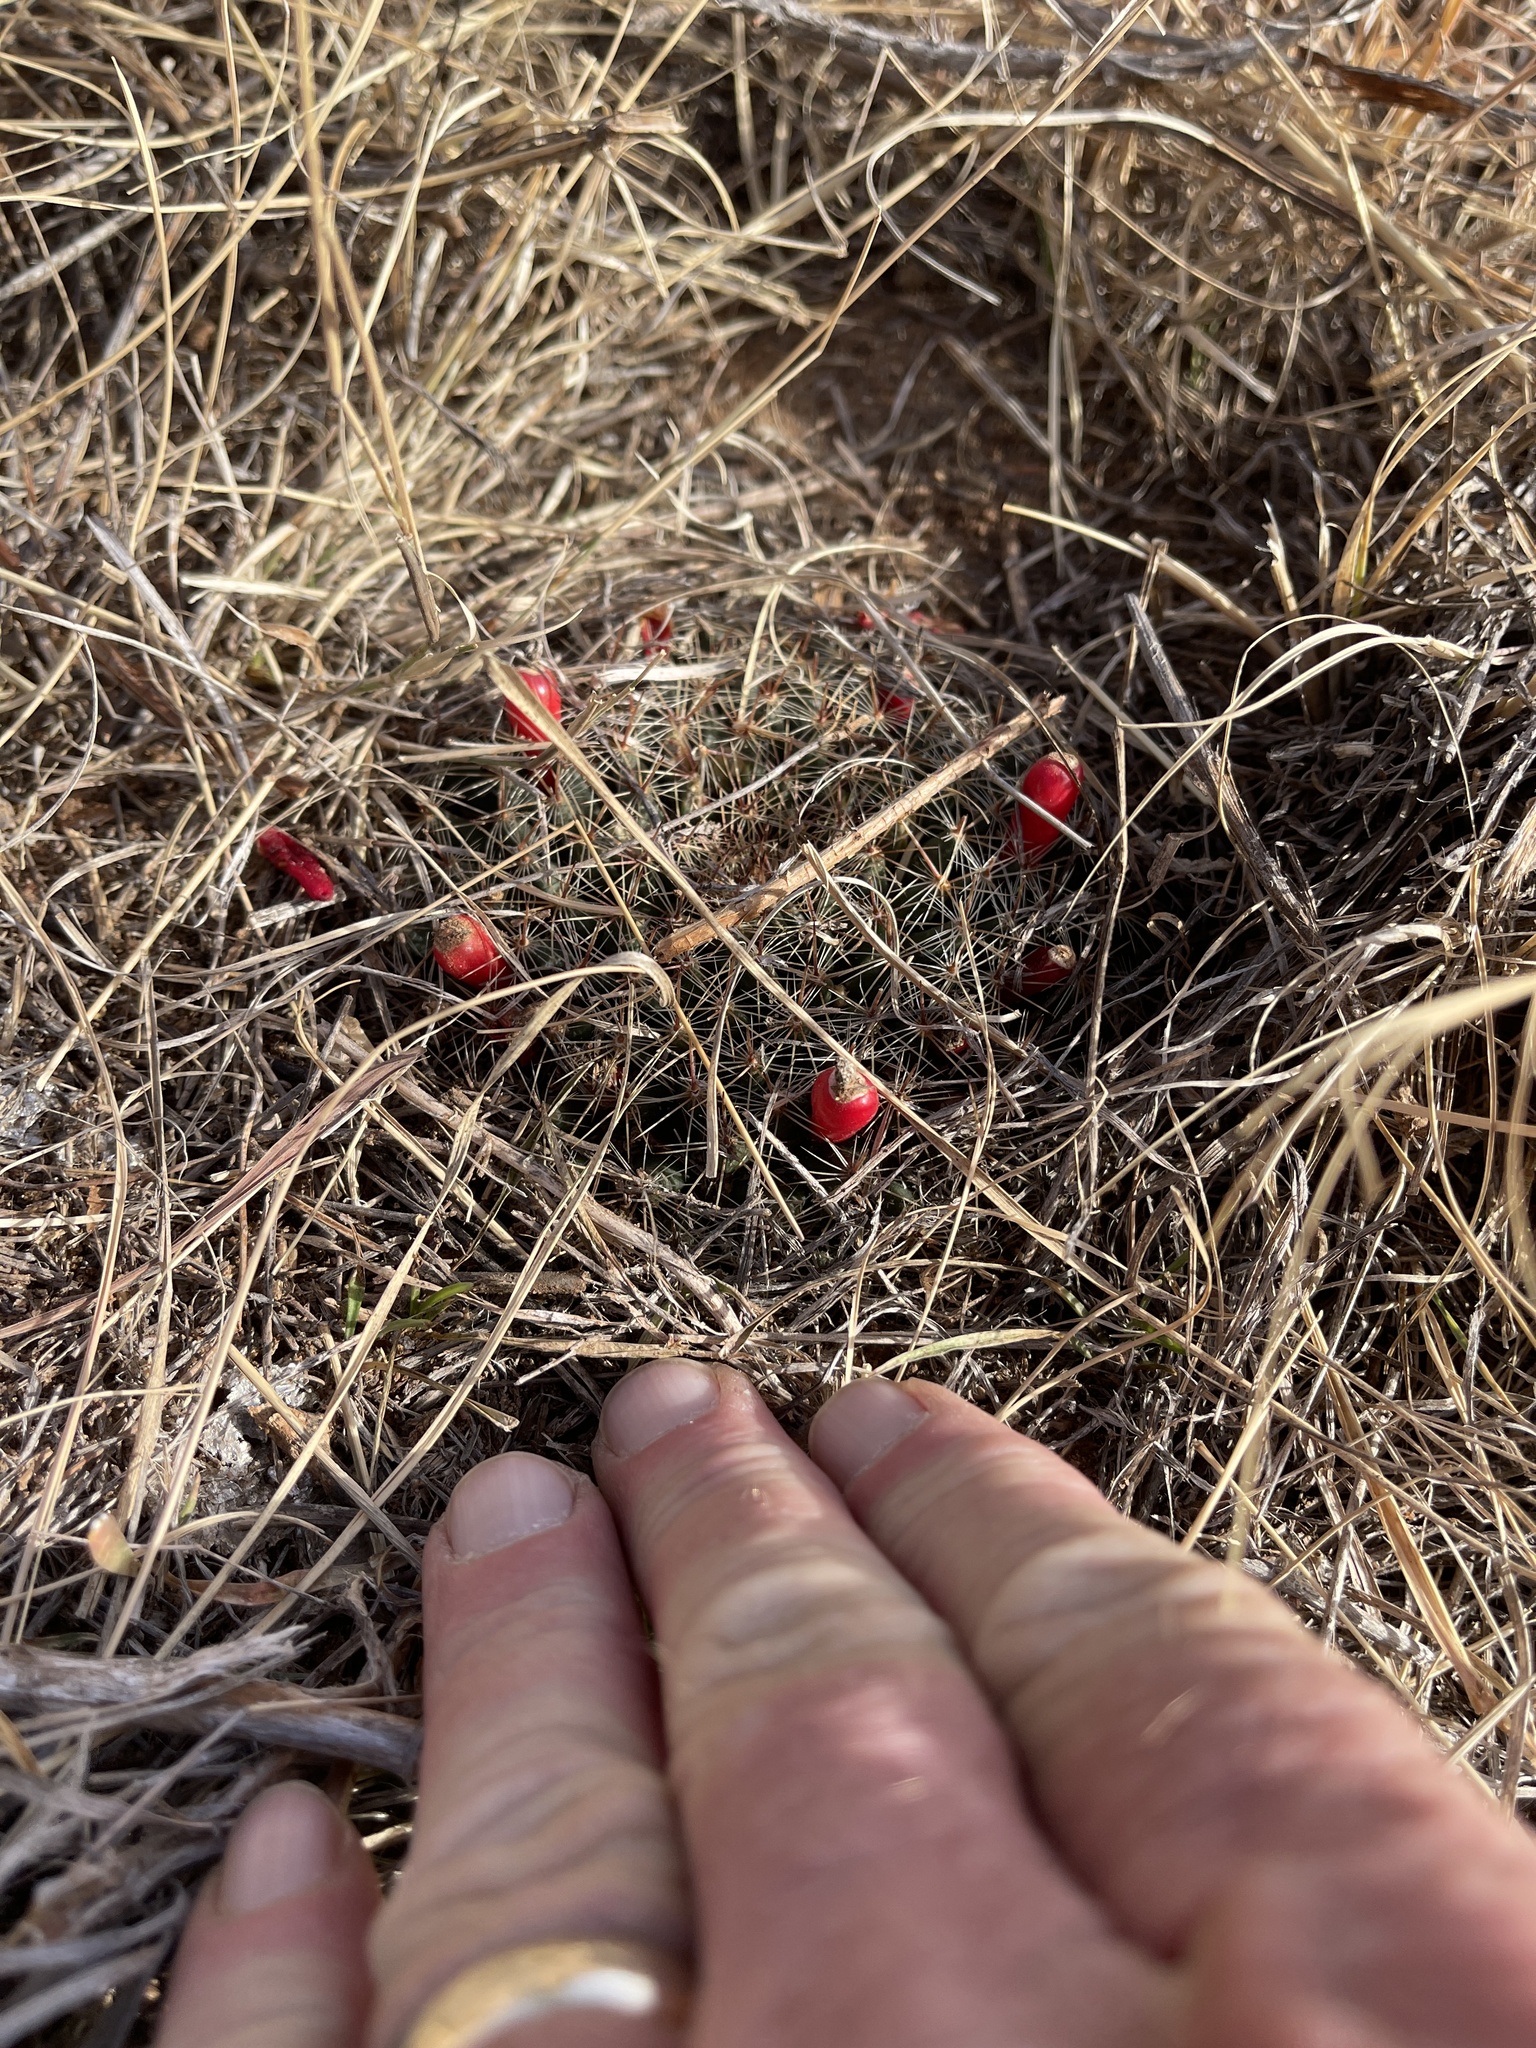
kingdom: Plantae
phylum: Tracheophyta
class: Magnoliopsida
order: Caryophyllales
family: Cactaceae
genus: Mammillaria
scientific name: Mammillaria heyderi
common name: Little nipple cactus
